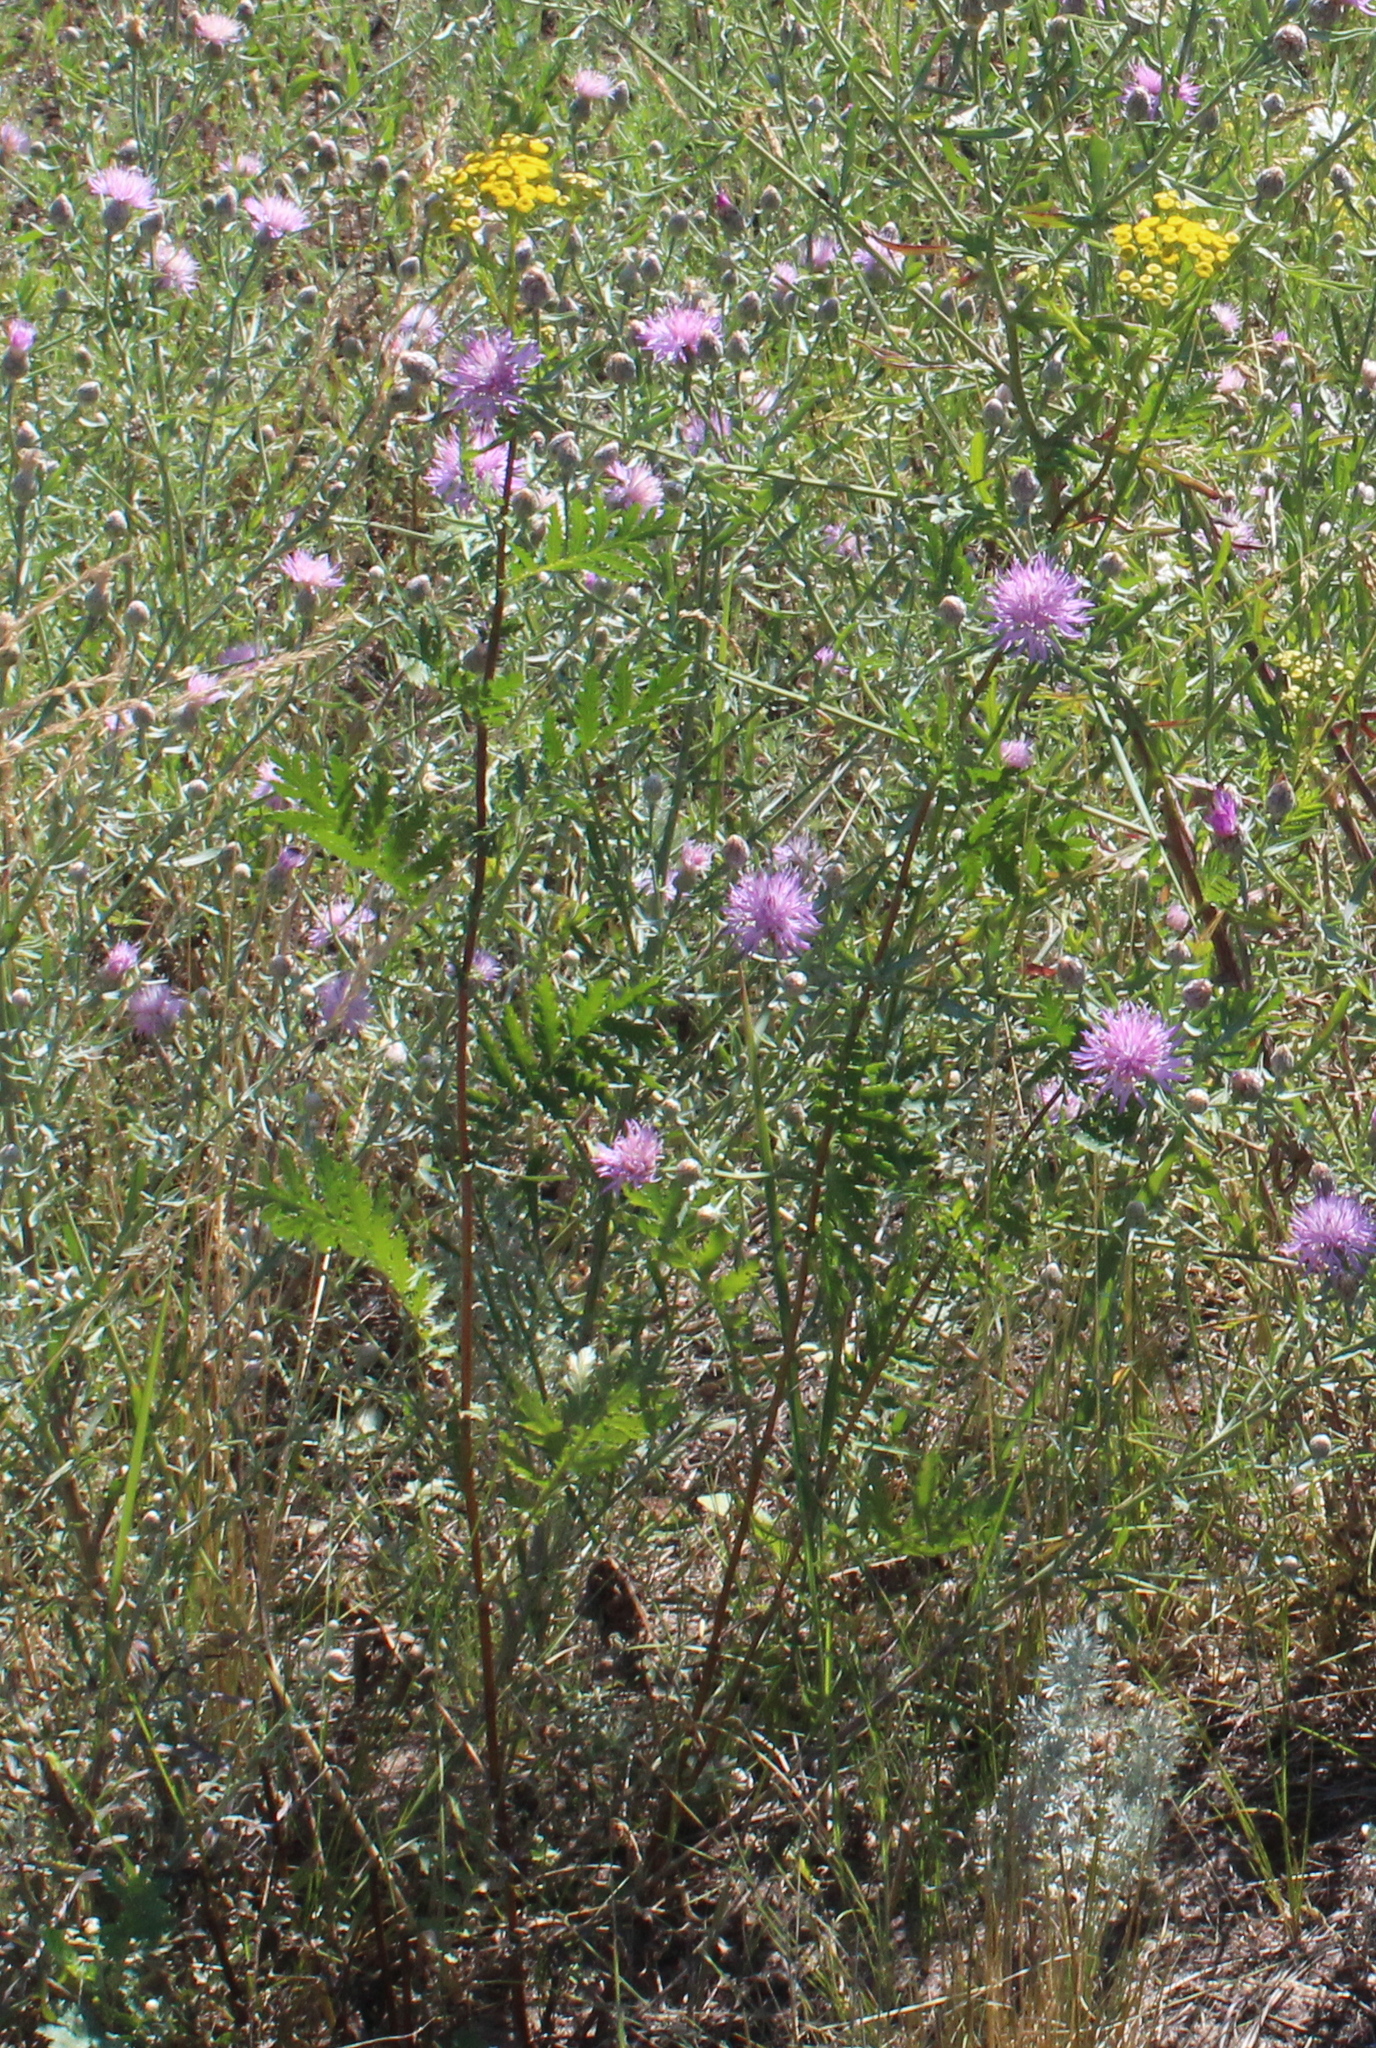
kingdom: Plantae
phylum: Tracheophyta
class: Magnoliopsida
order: Asterales
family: Asteraceae
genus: Tanacetum
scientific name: Tanacetum vulgare
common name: Common tansy
